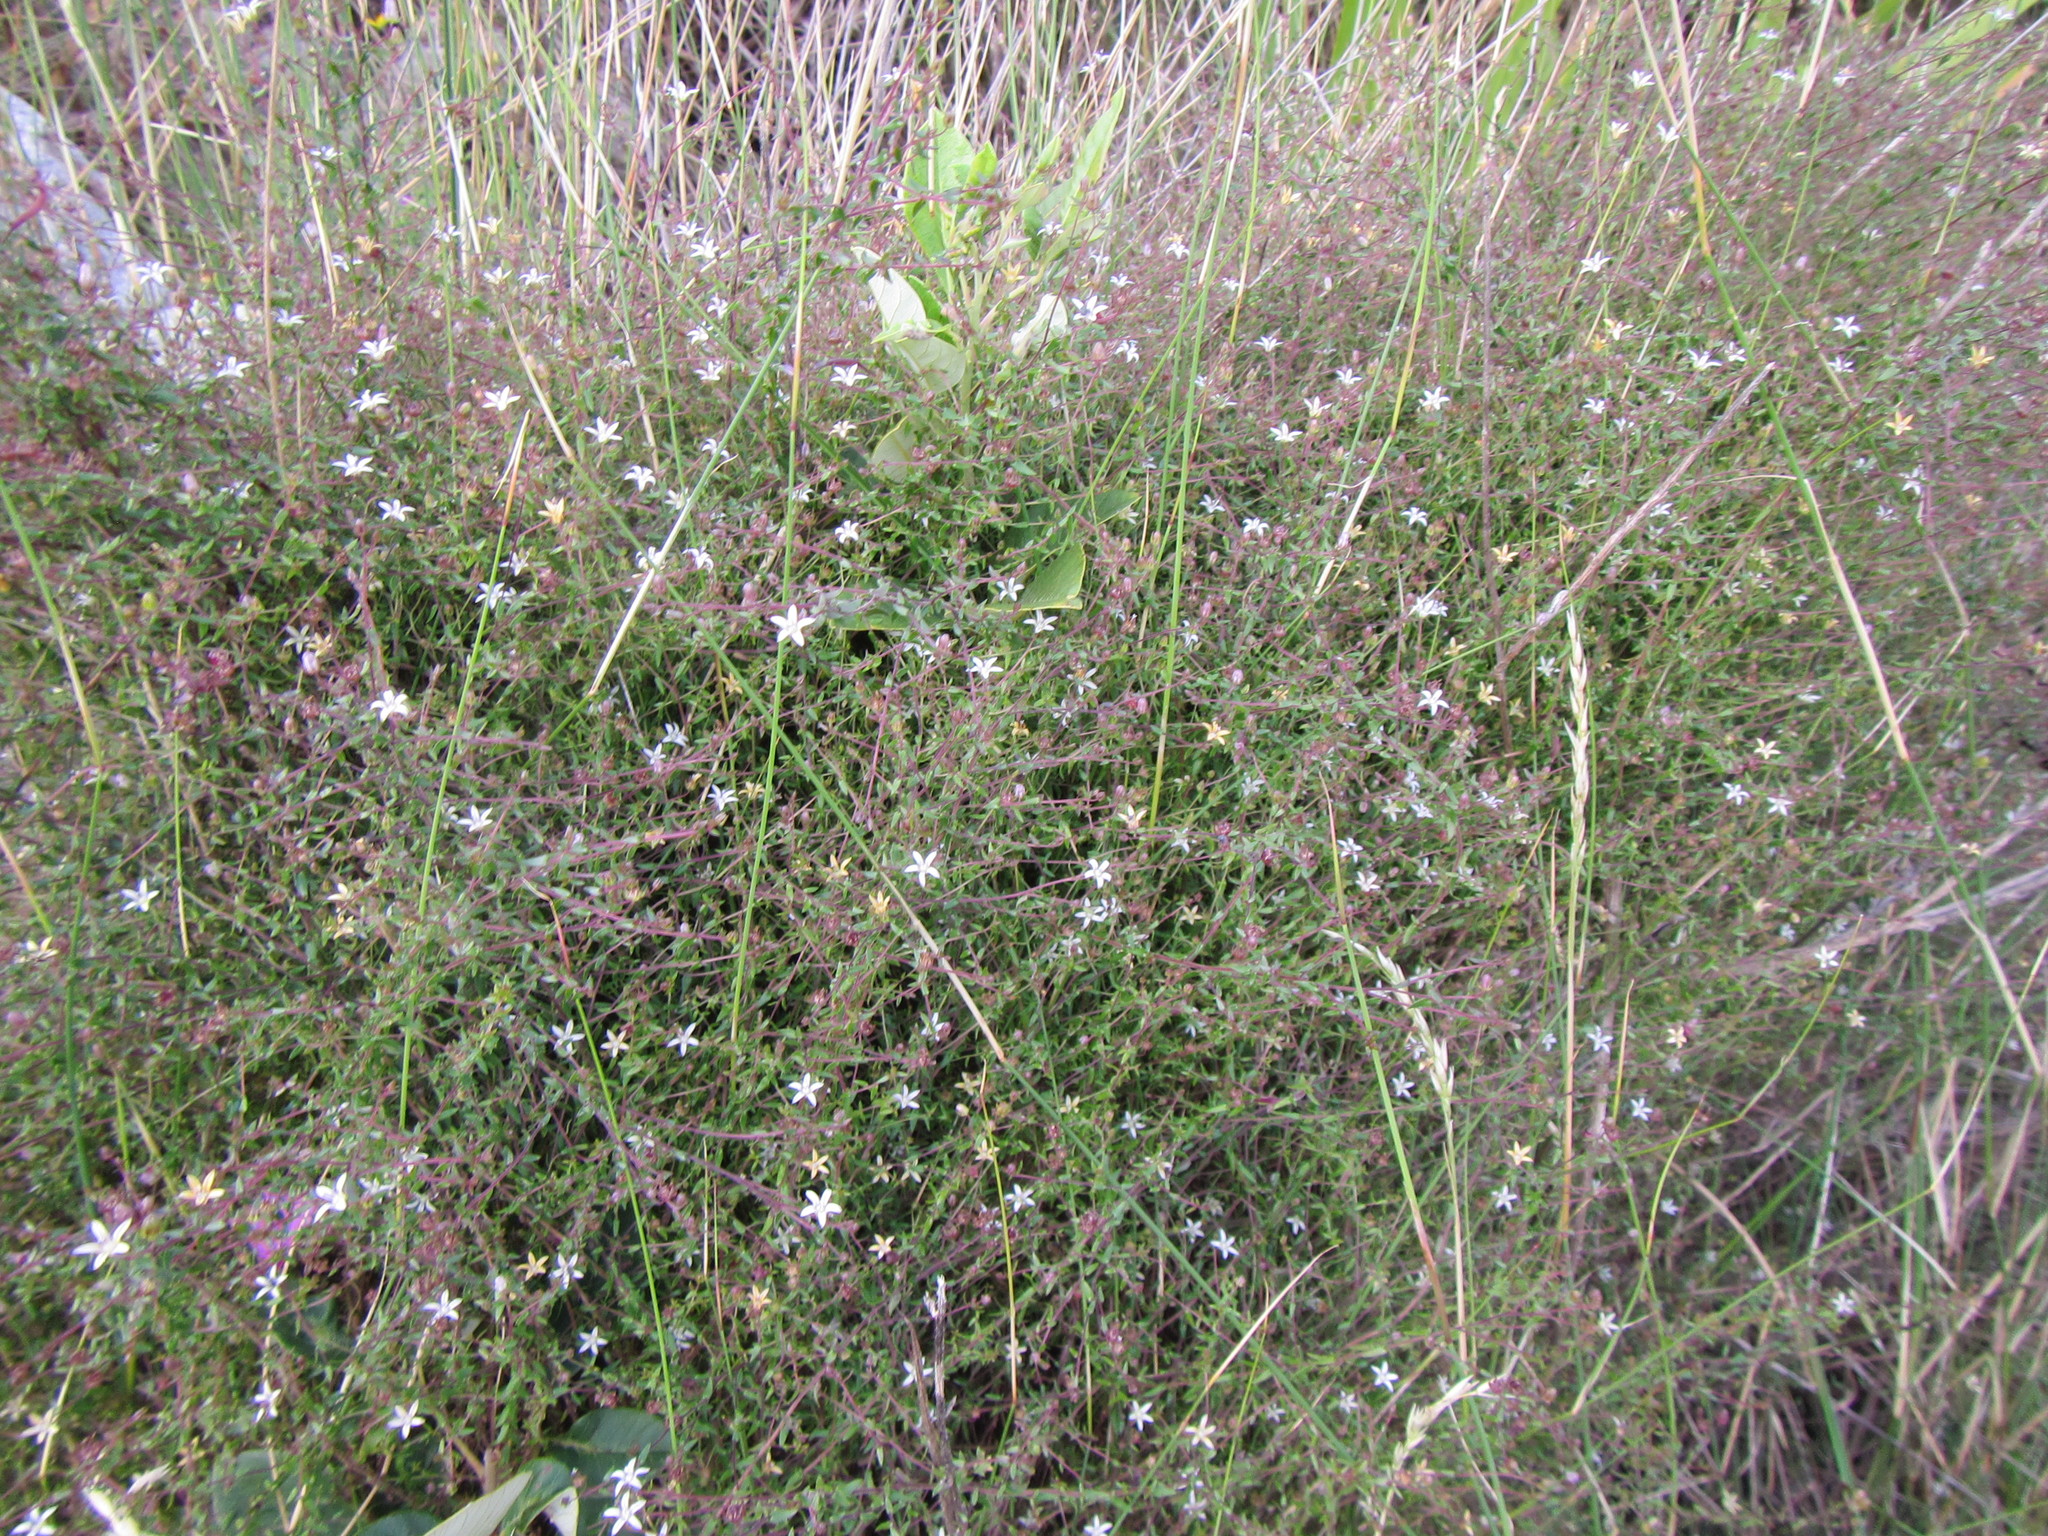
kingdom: Plantae
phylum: Tracheophyta
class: Magnoliopsida
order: Asterales
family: Campanulaceae
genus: Wahlenbergia
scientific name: Wahlenbergia parvifolia
